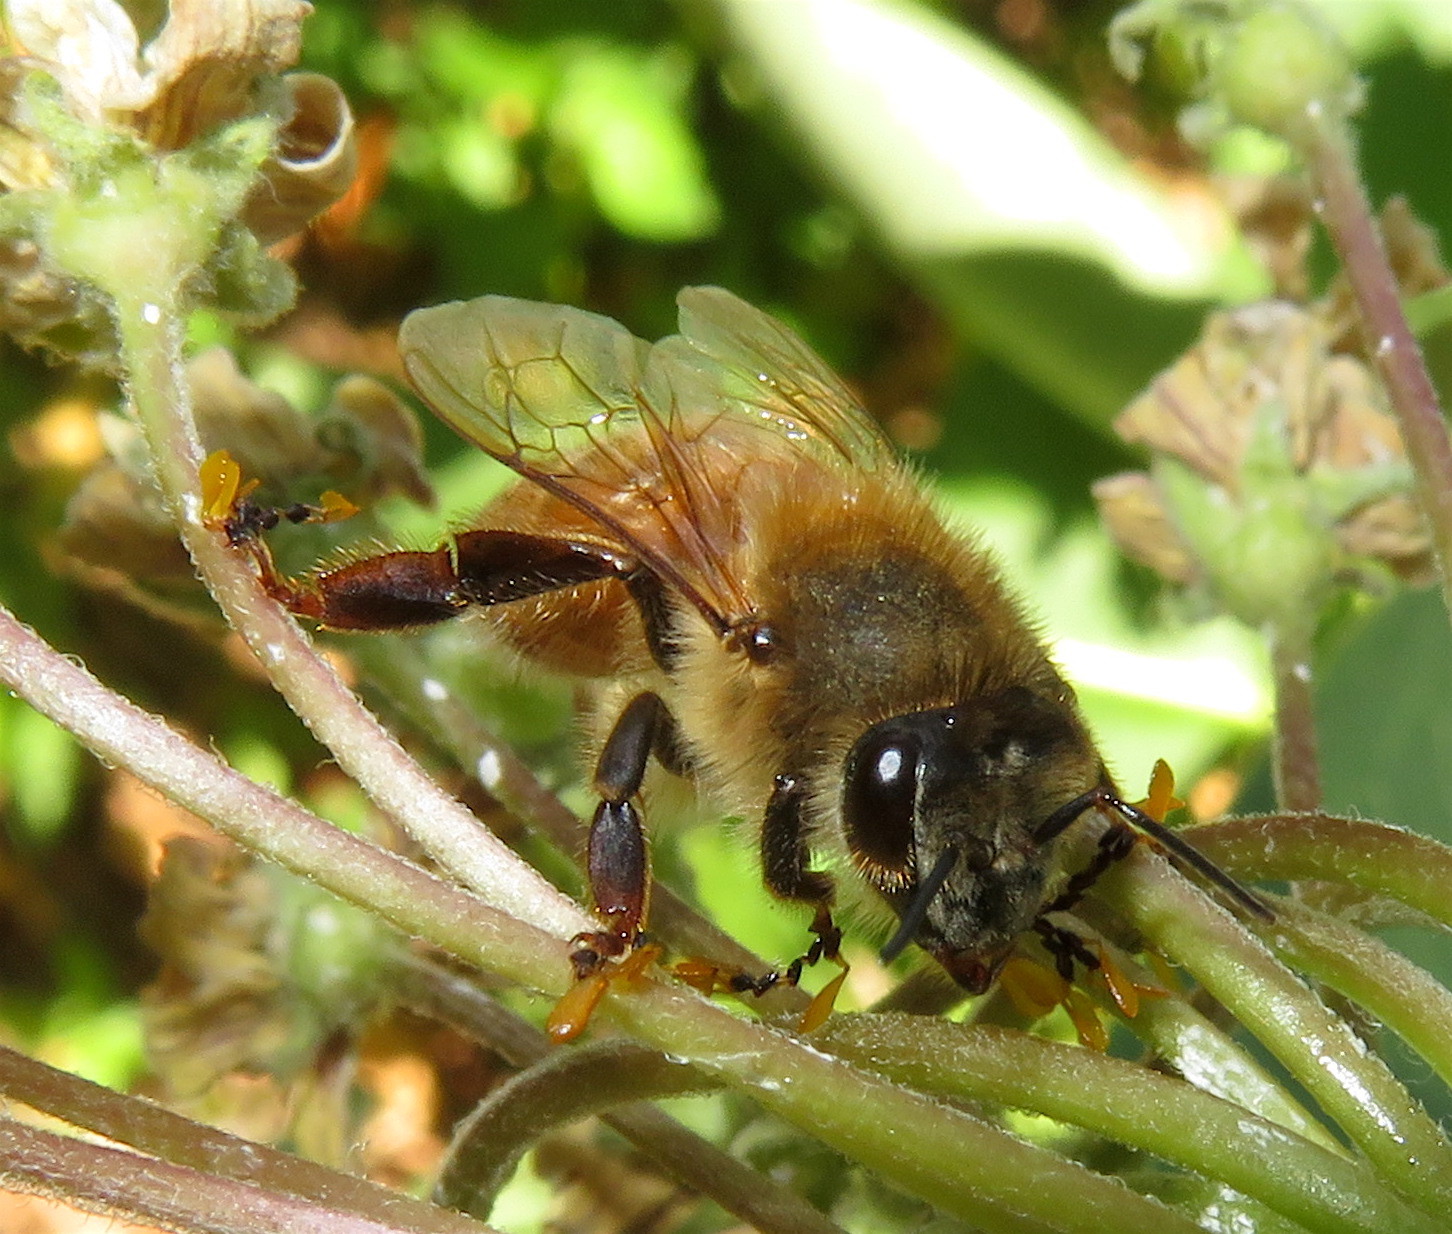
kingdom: Animalia
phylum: Arthropoda
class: Insecta
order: Hymenoptera
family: Apidae
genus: Apis
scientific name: Apis mellifera
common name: Honey bee
